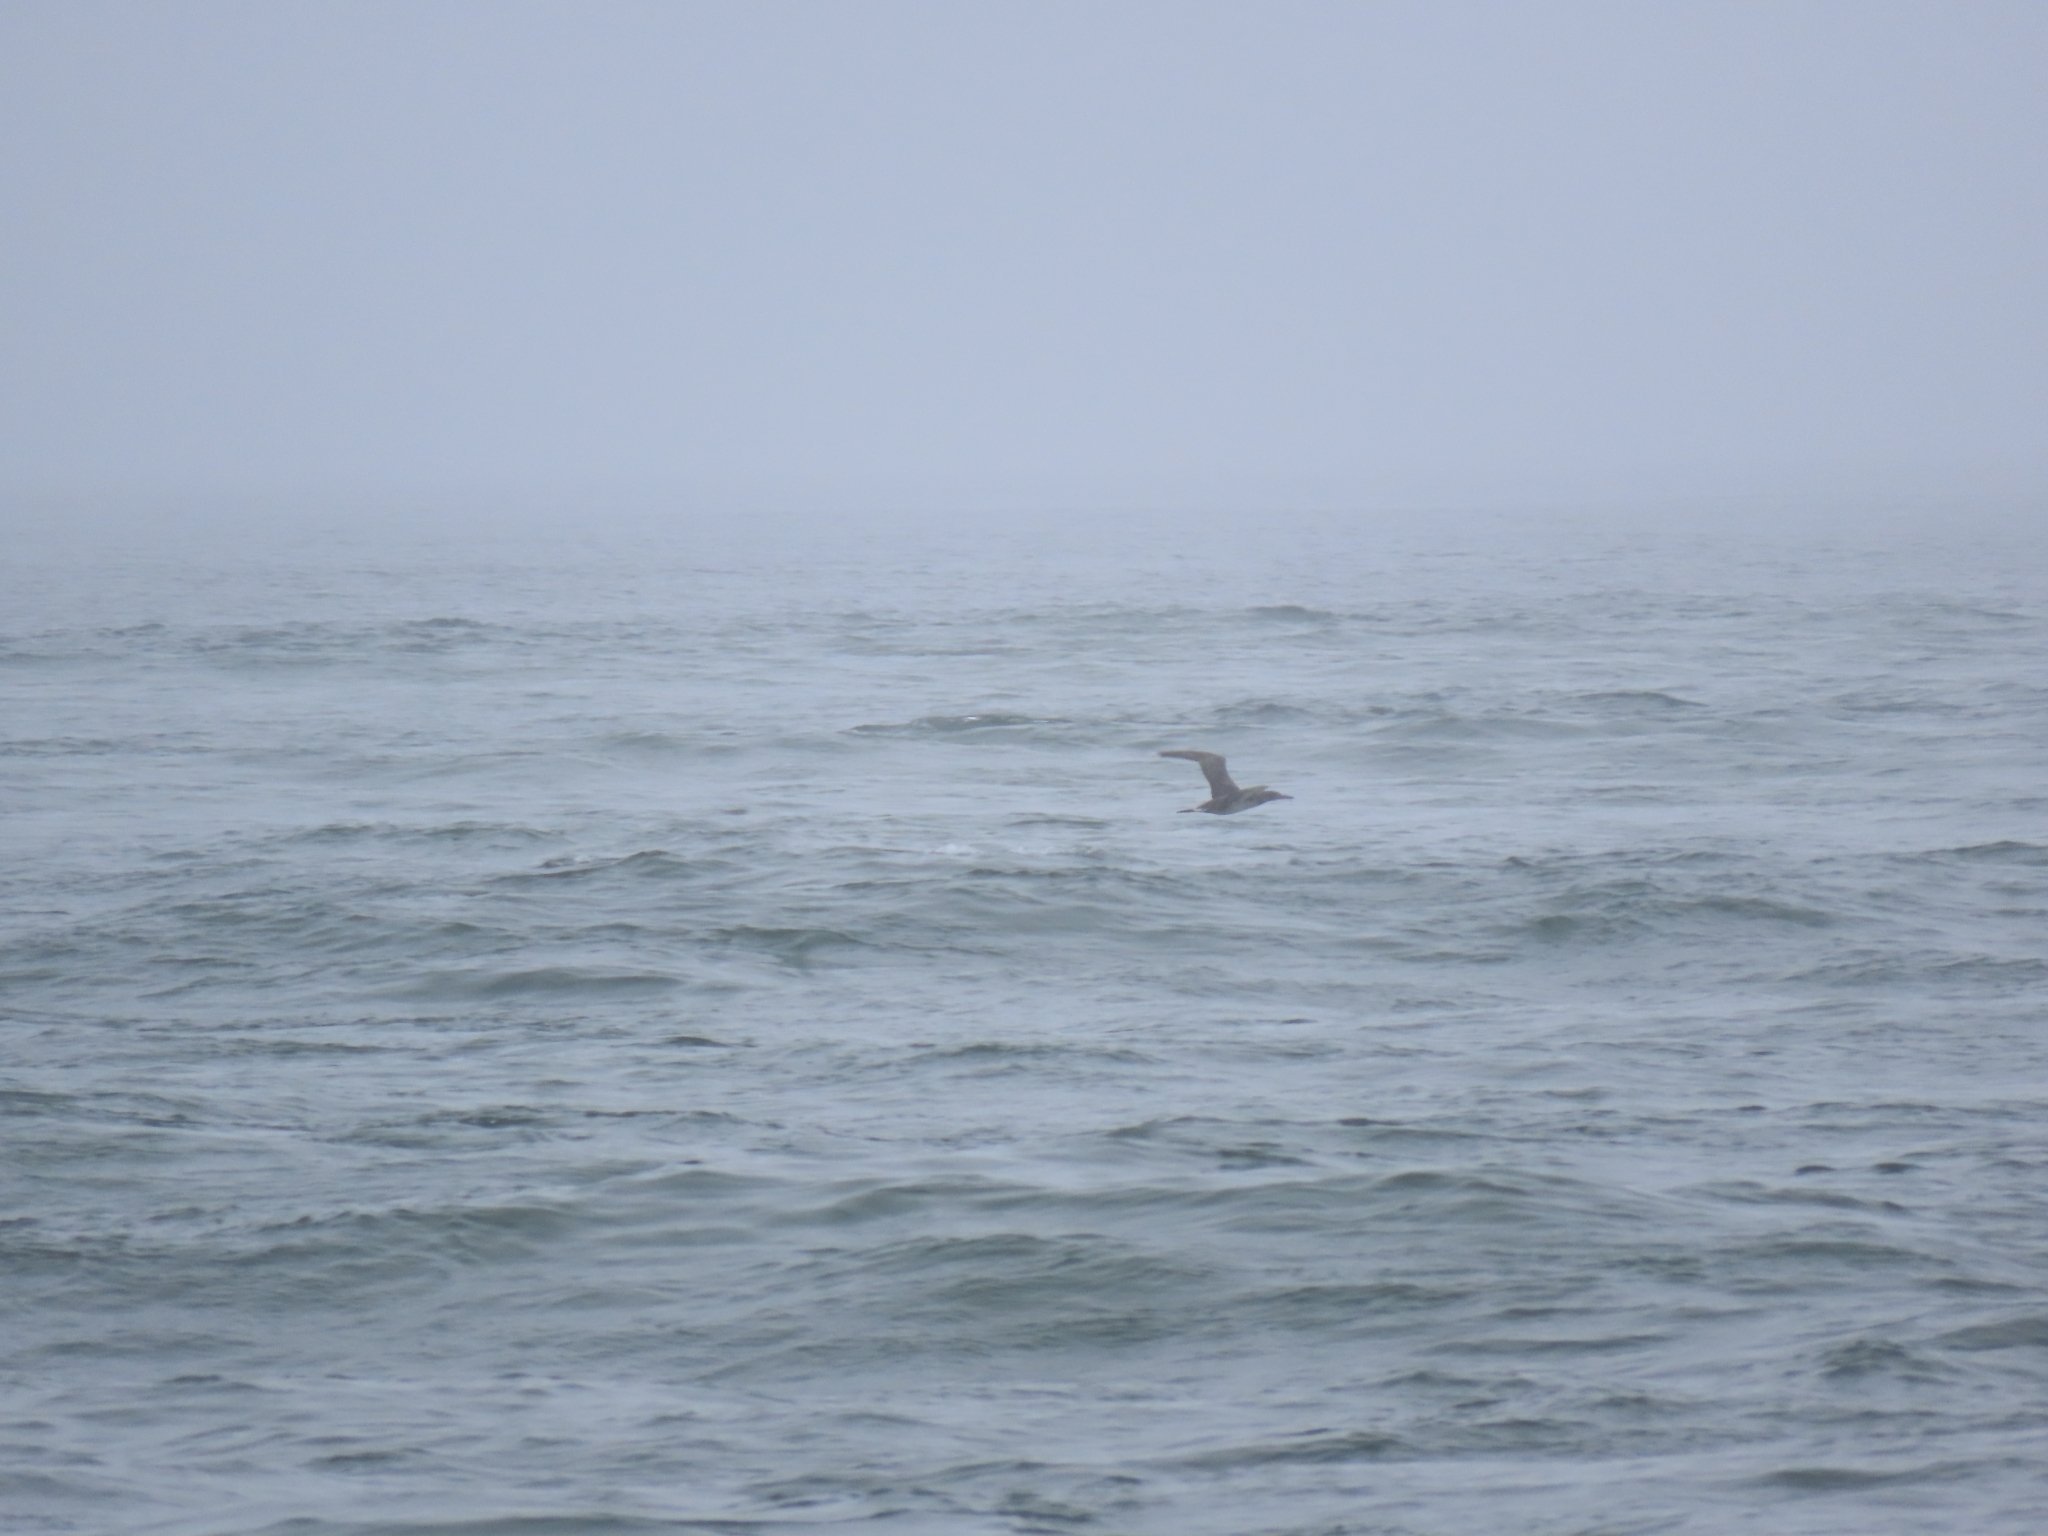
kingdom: Animalia
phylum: Chordata
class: Aves
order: Suliformes
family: Sulidae
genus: Morus
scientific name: Morus bassanus
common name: Northern gannet
